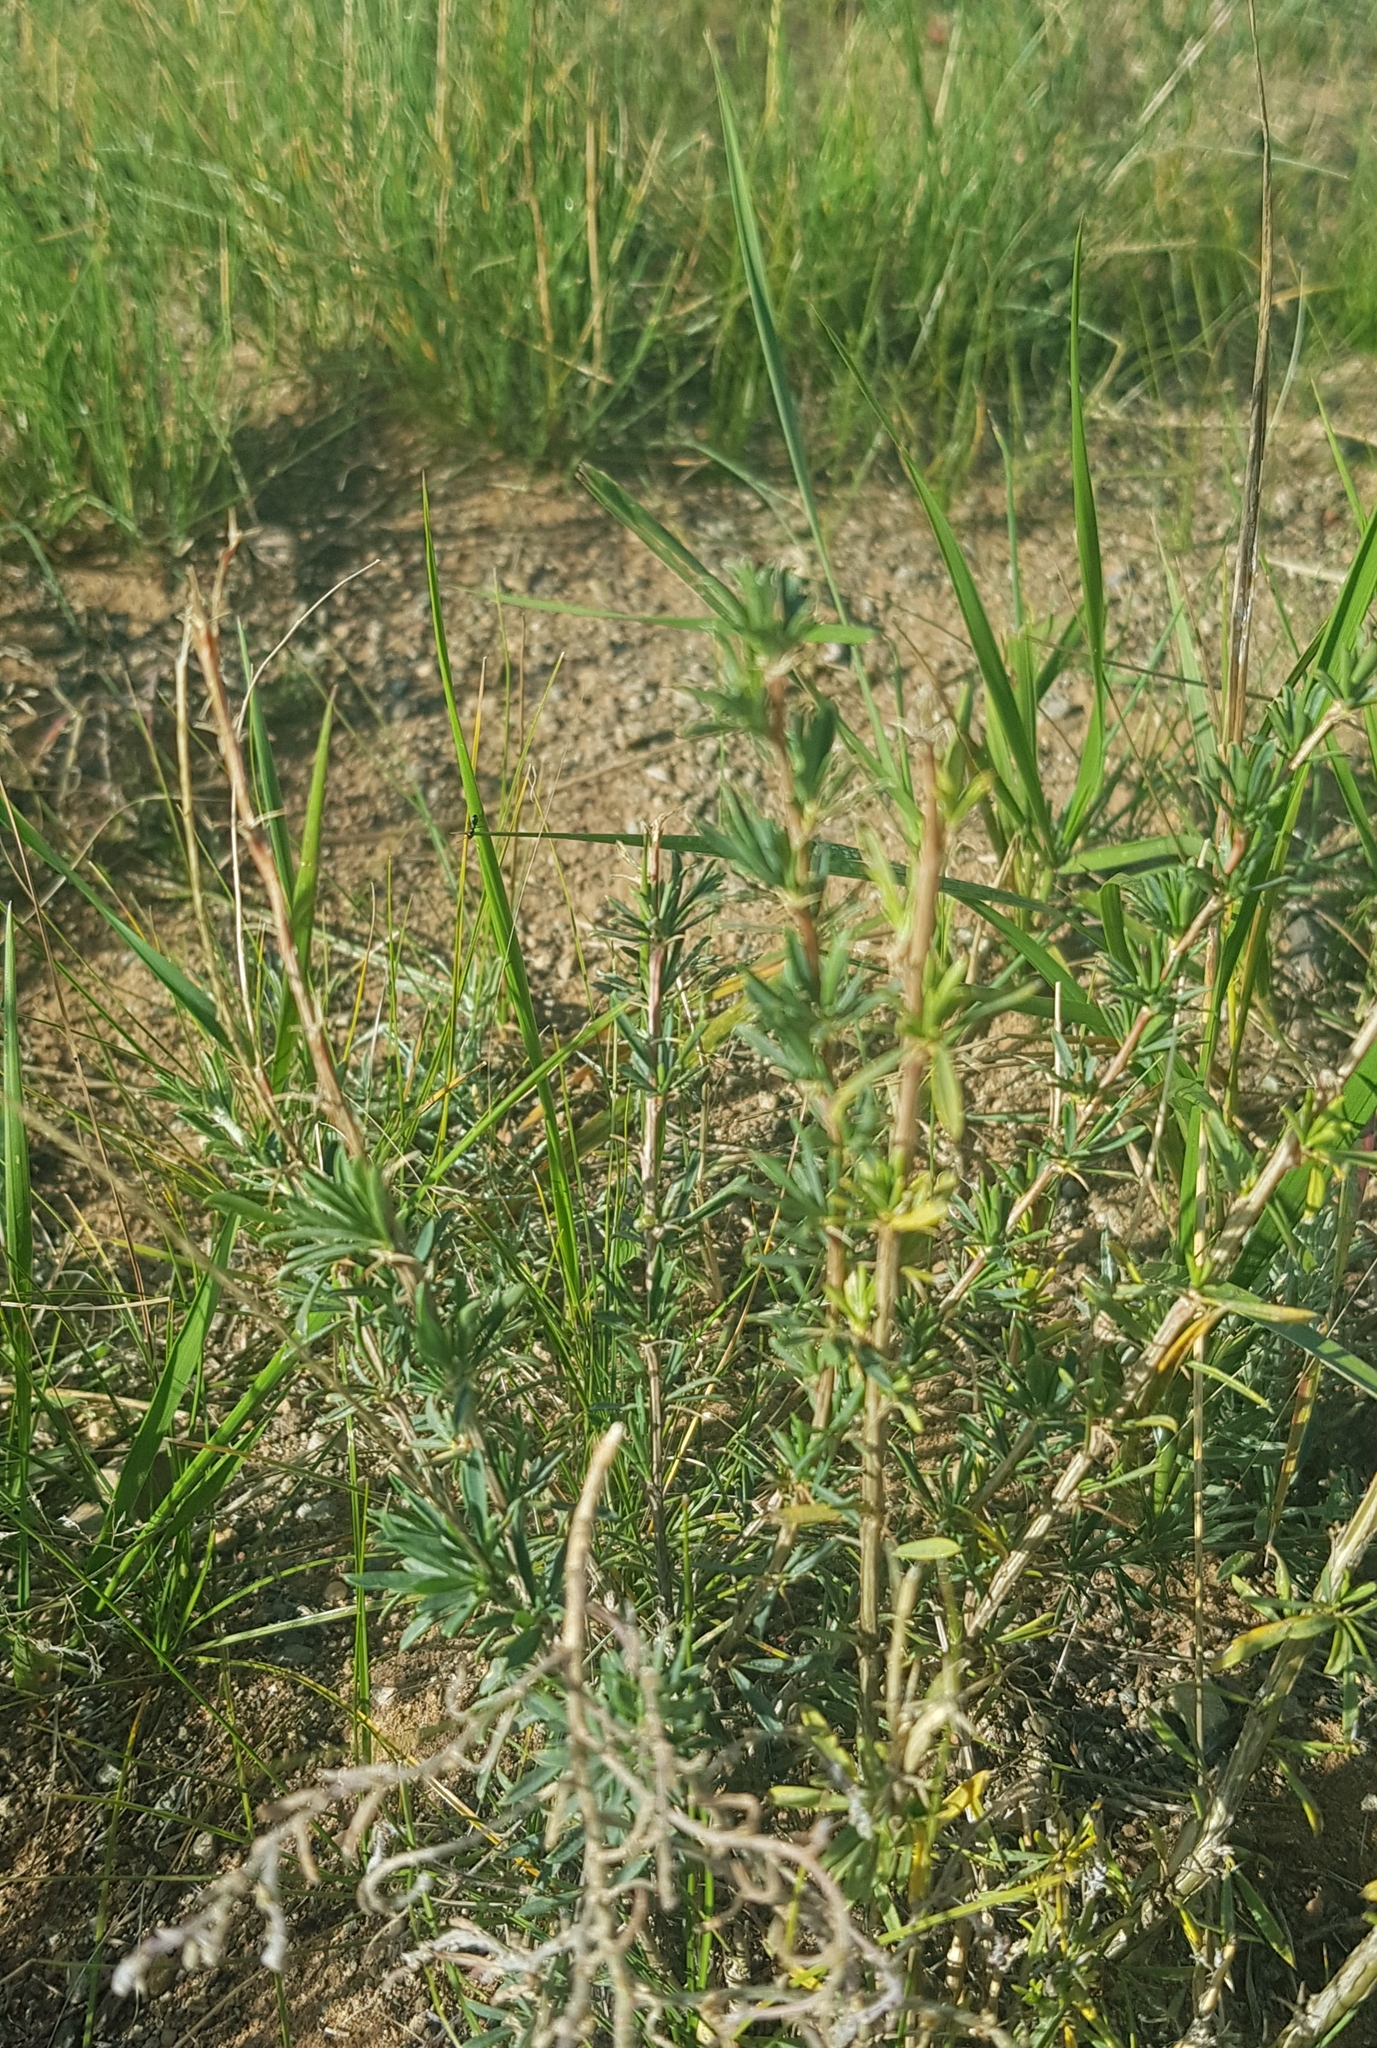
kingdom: Plantae
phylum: Tracheophyta
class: Magnoliopsida
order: Fabales
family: Fabaceae
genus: Caragana
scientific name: Caragana stenophylla
